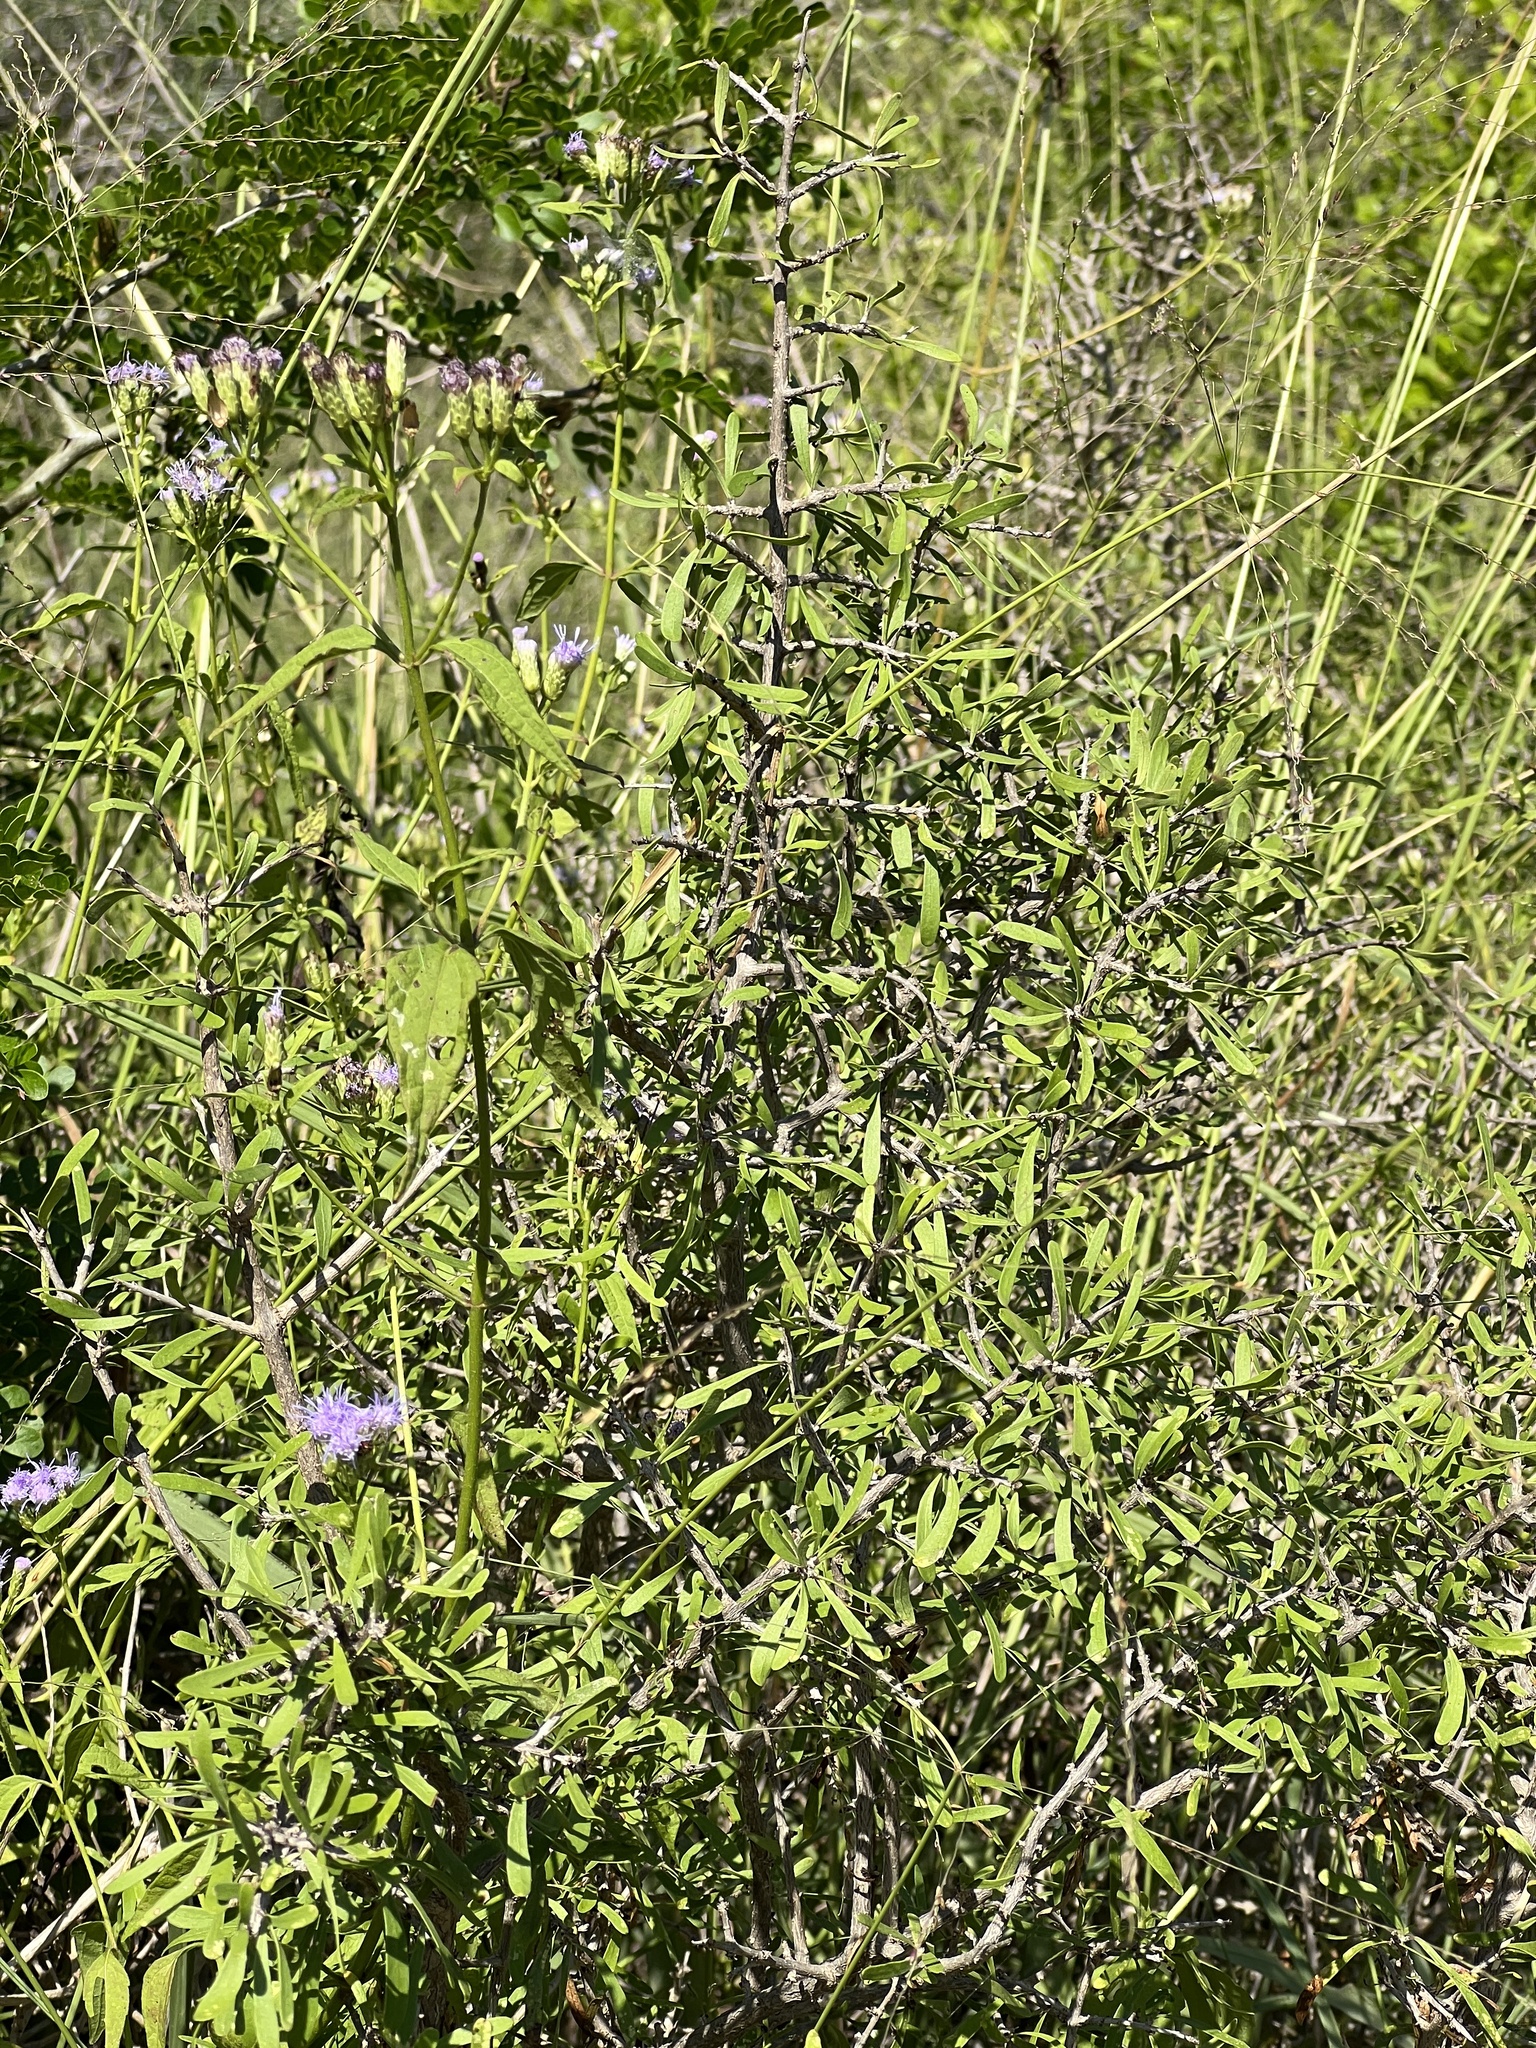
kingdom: Plantae
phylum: Tracheophyta
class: Magnoliopsida
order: Lamiales
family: Oleaceae
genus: Forestiera
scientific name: Forestiera angustifolia
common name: Elbowbush
